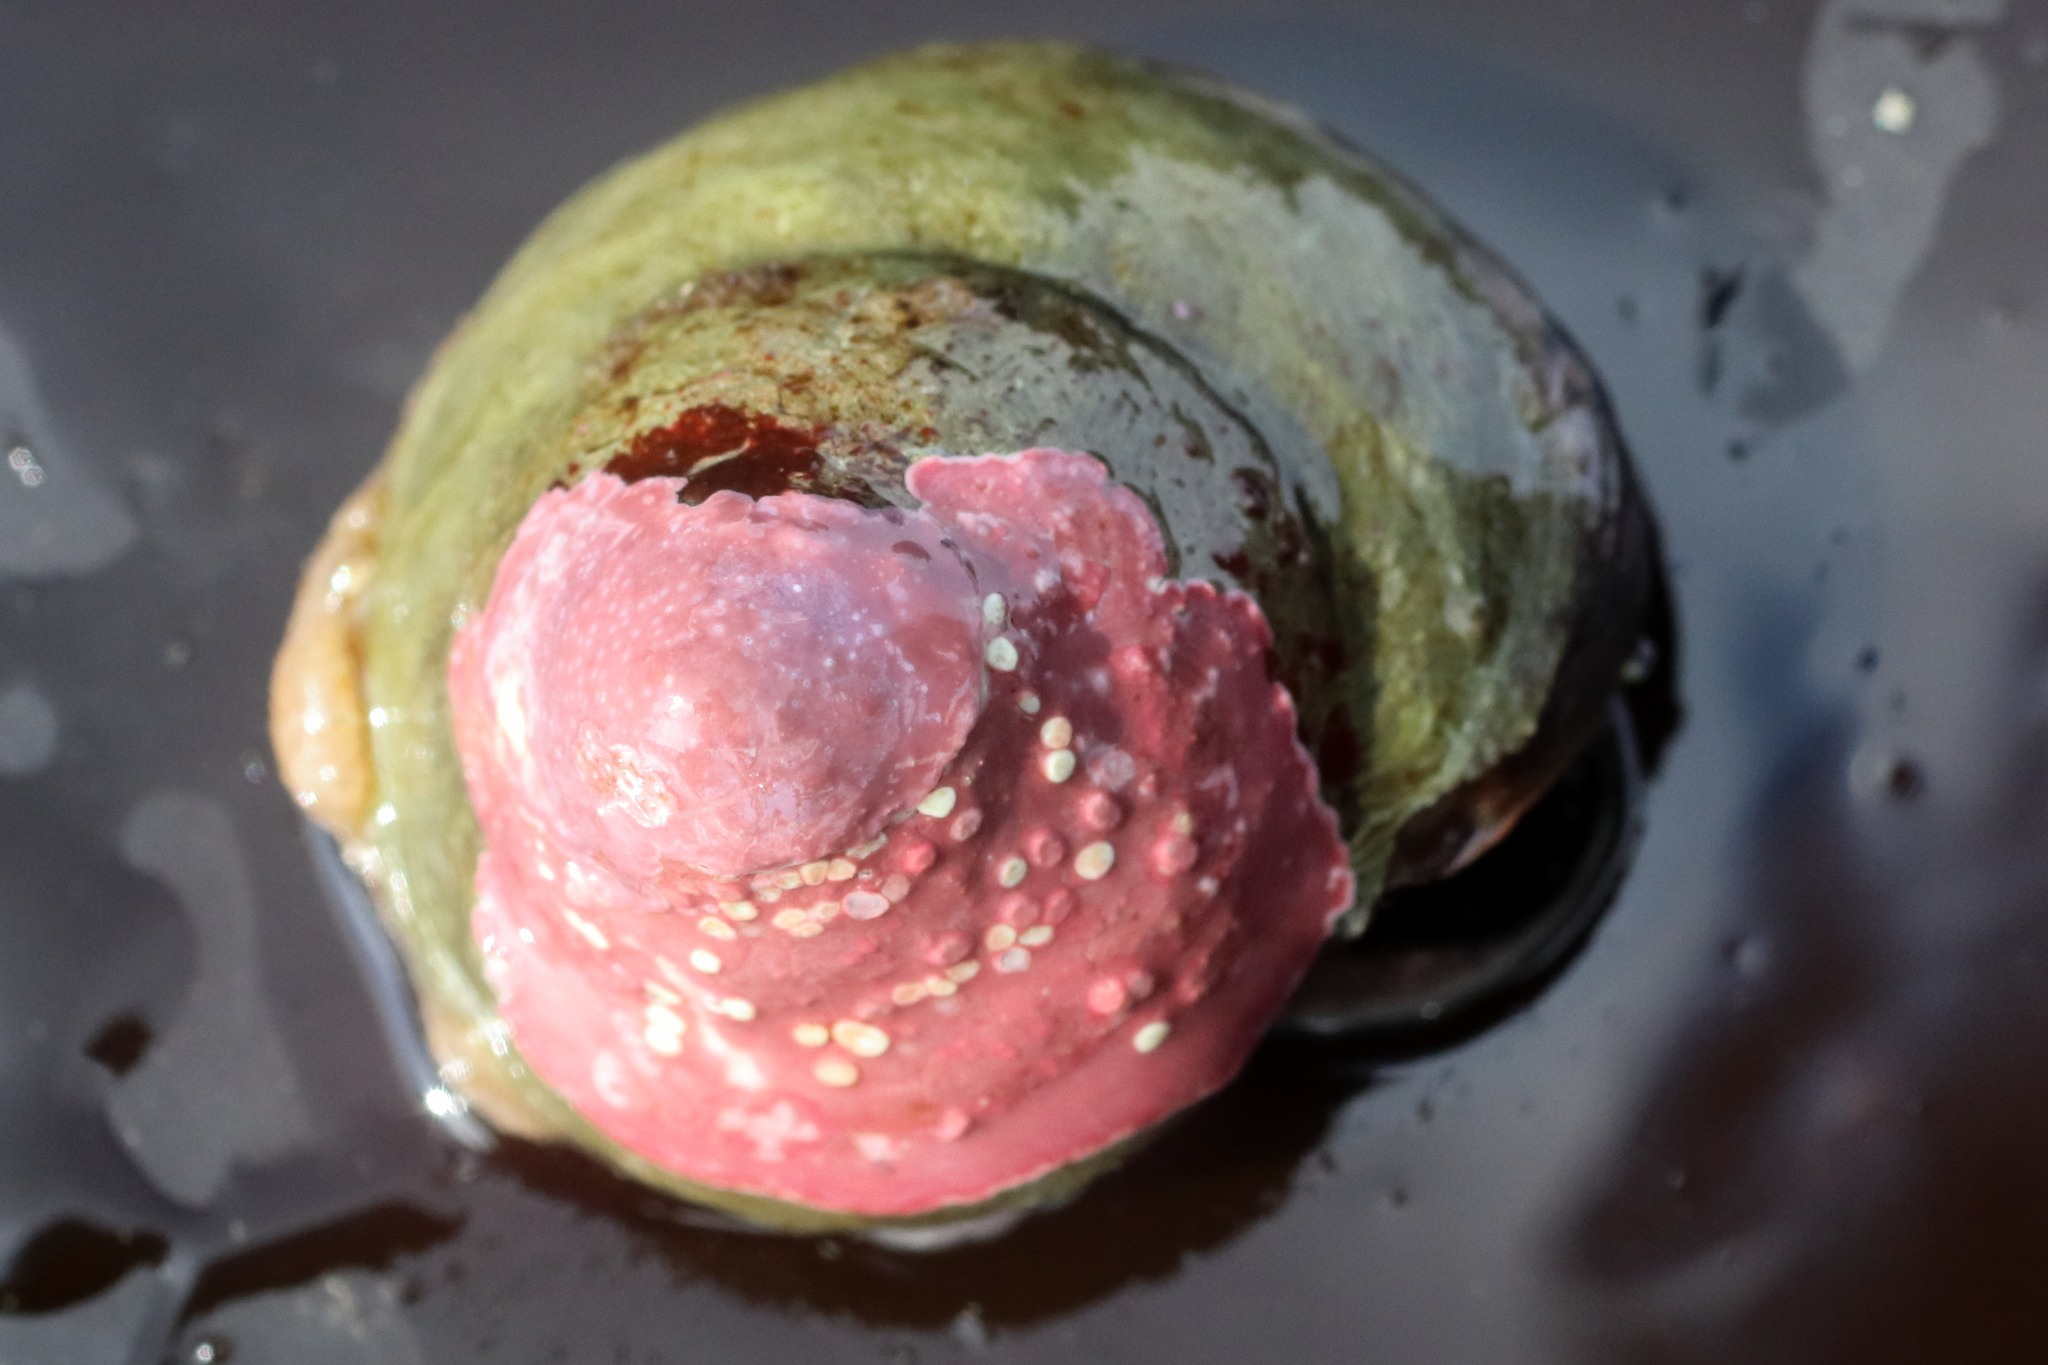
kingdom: Animalia
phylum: Mollusca
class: Gastropoda
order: Trochida
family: Tegulidae
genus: Tegula
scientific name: Tegula pulligo
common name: Brown turban
